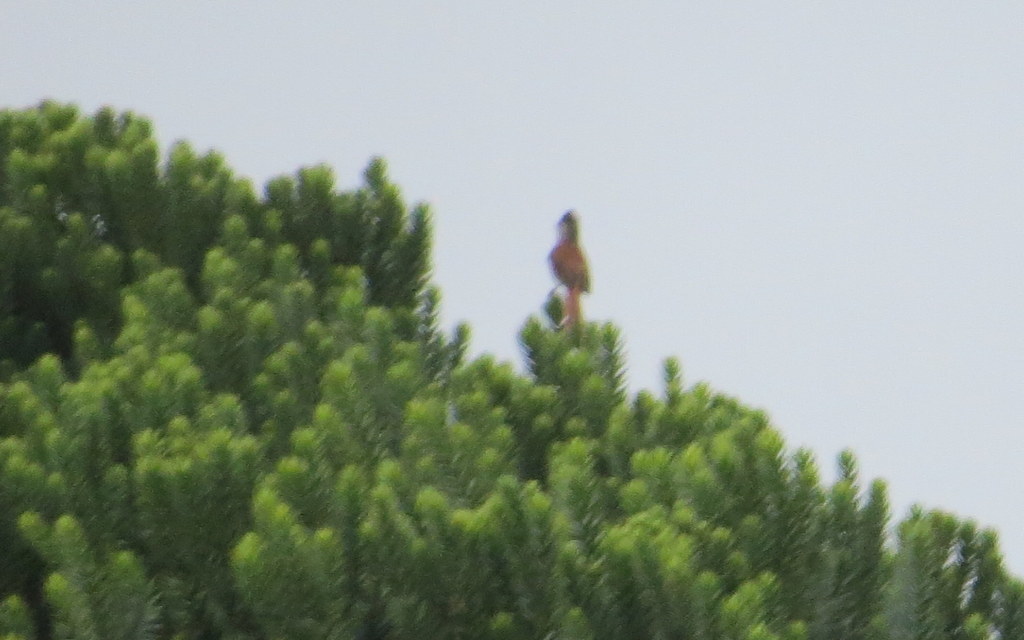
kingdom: Animalia
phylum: Chordata
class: Aves
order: Passeriformes
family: Furnariidae
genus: Leptasthenura
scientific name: Leptasthenura setaria
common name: Araucaria tit-spinetail
